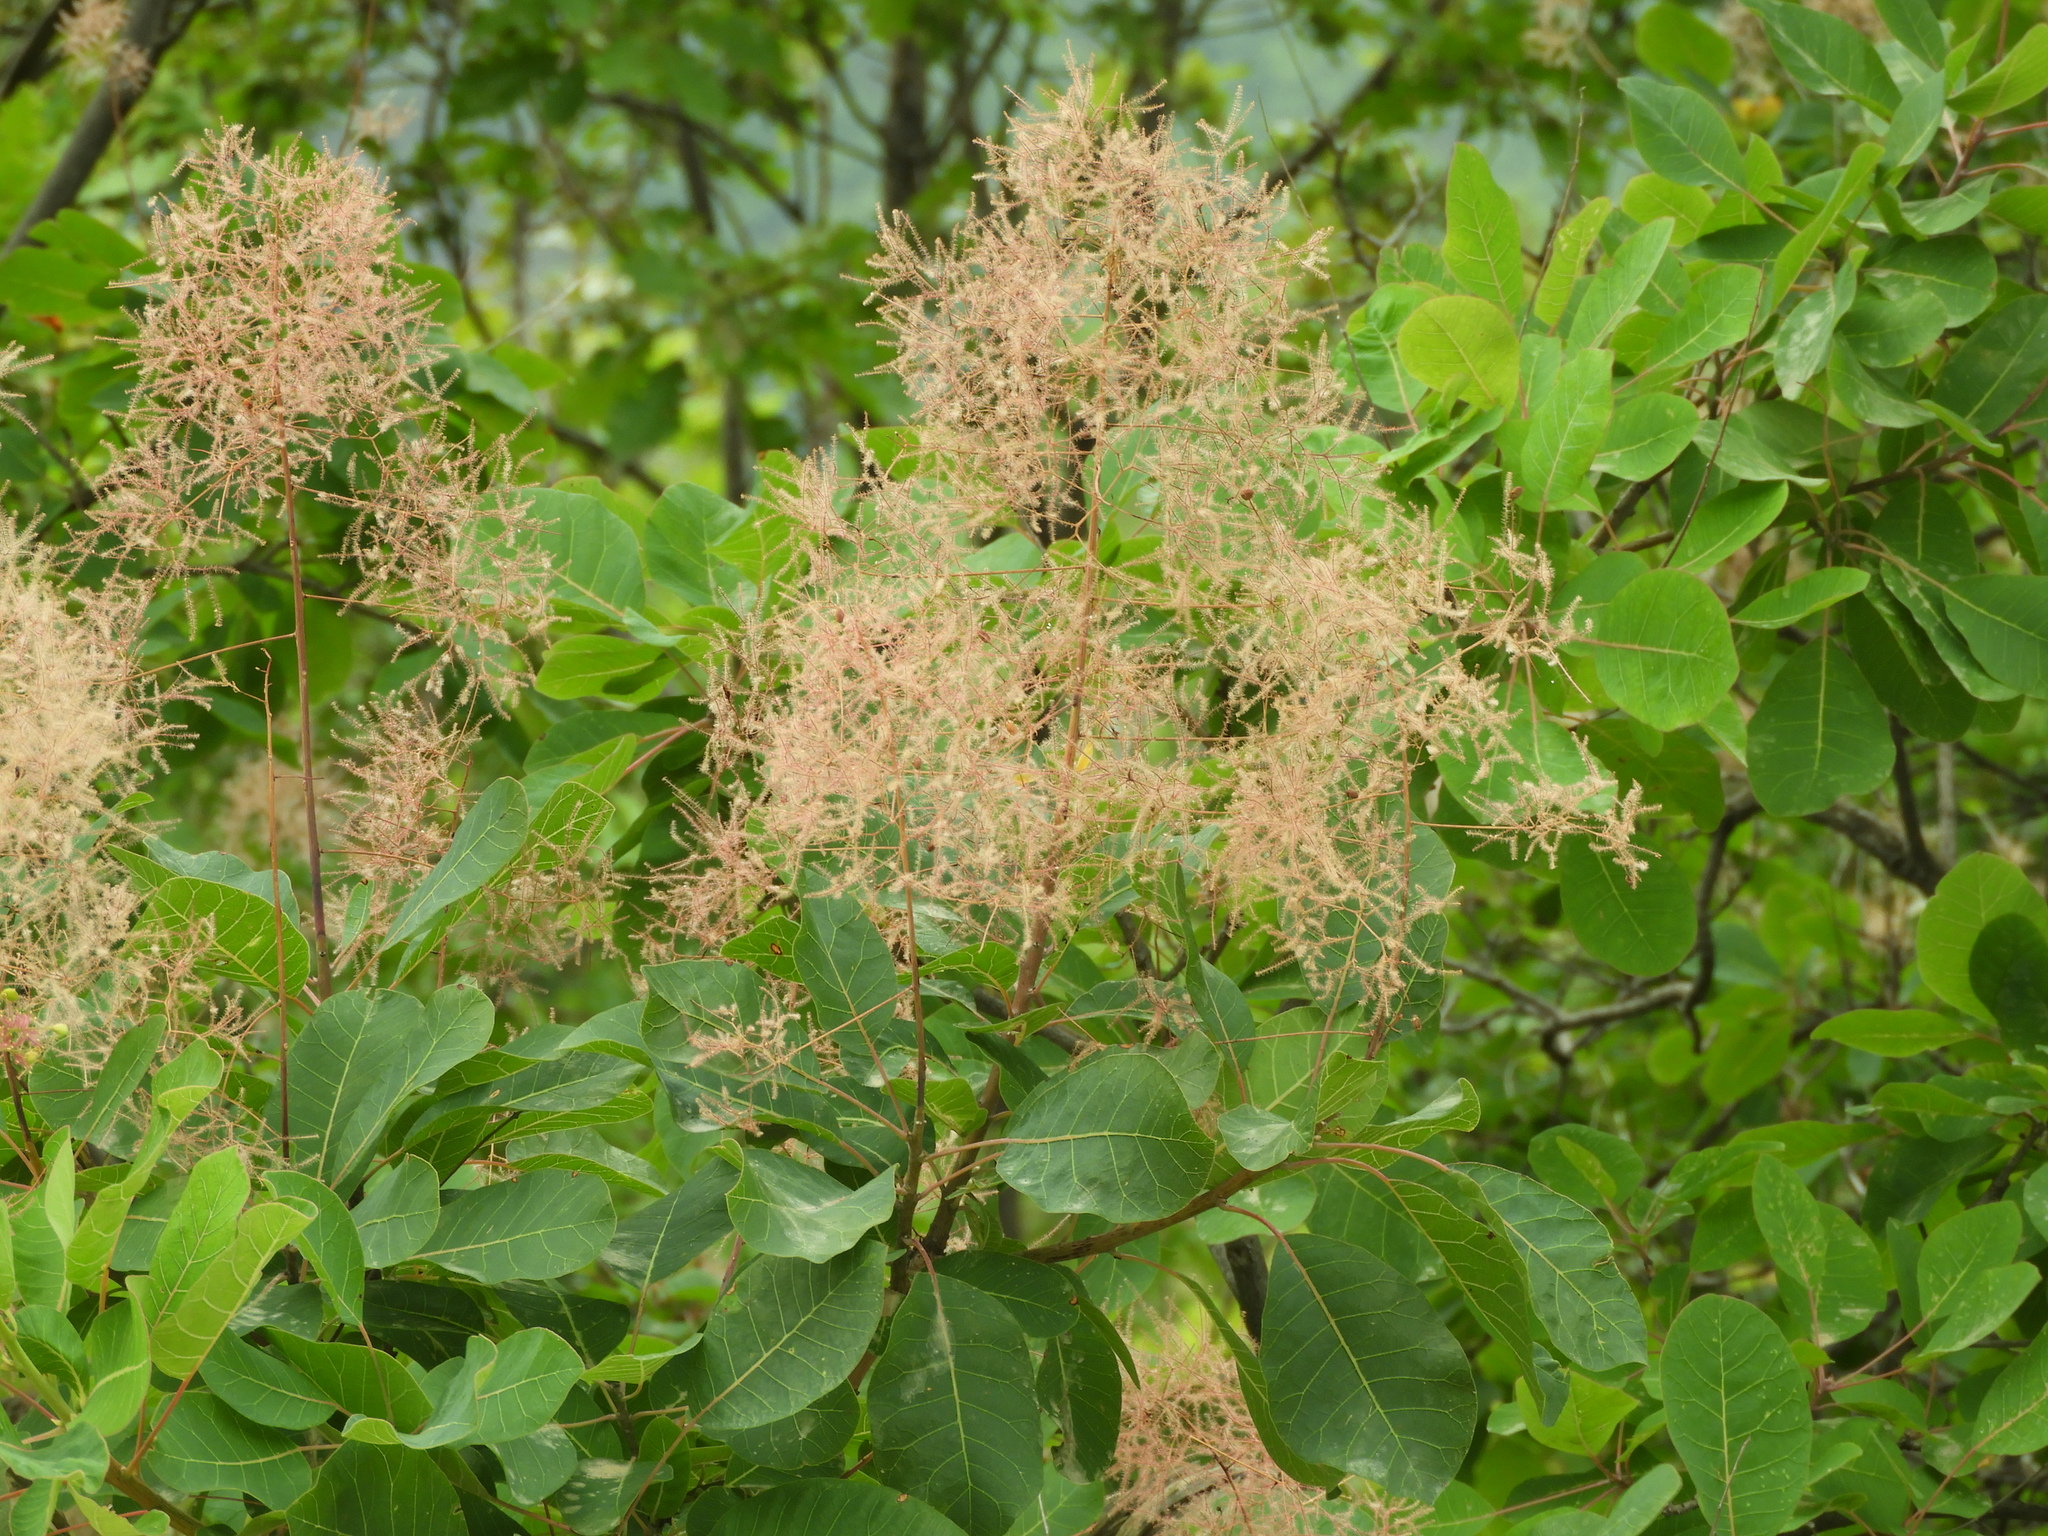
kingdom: Plantae
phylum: Tracheophyta
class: Magnoliopsida
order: Sapindales
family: Anacardiaceae
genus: Cotinus
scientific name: Cotinus coggygria
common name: Smoke-tree
